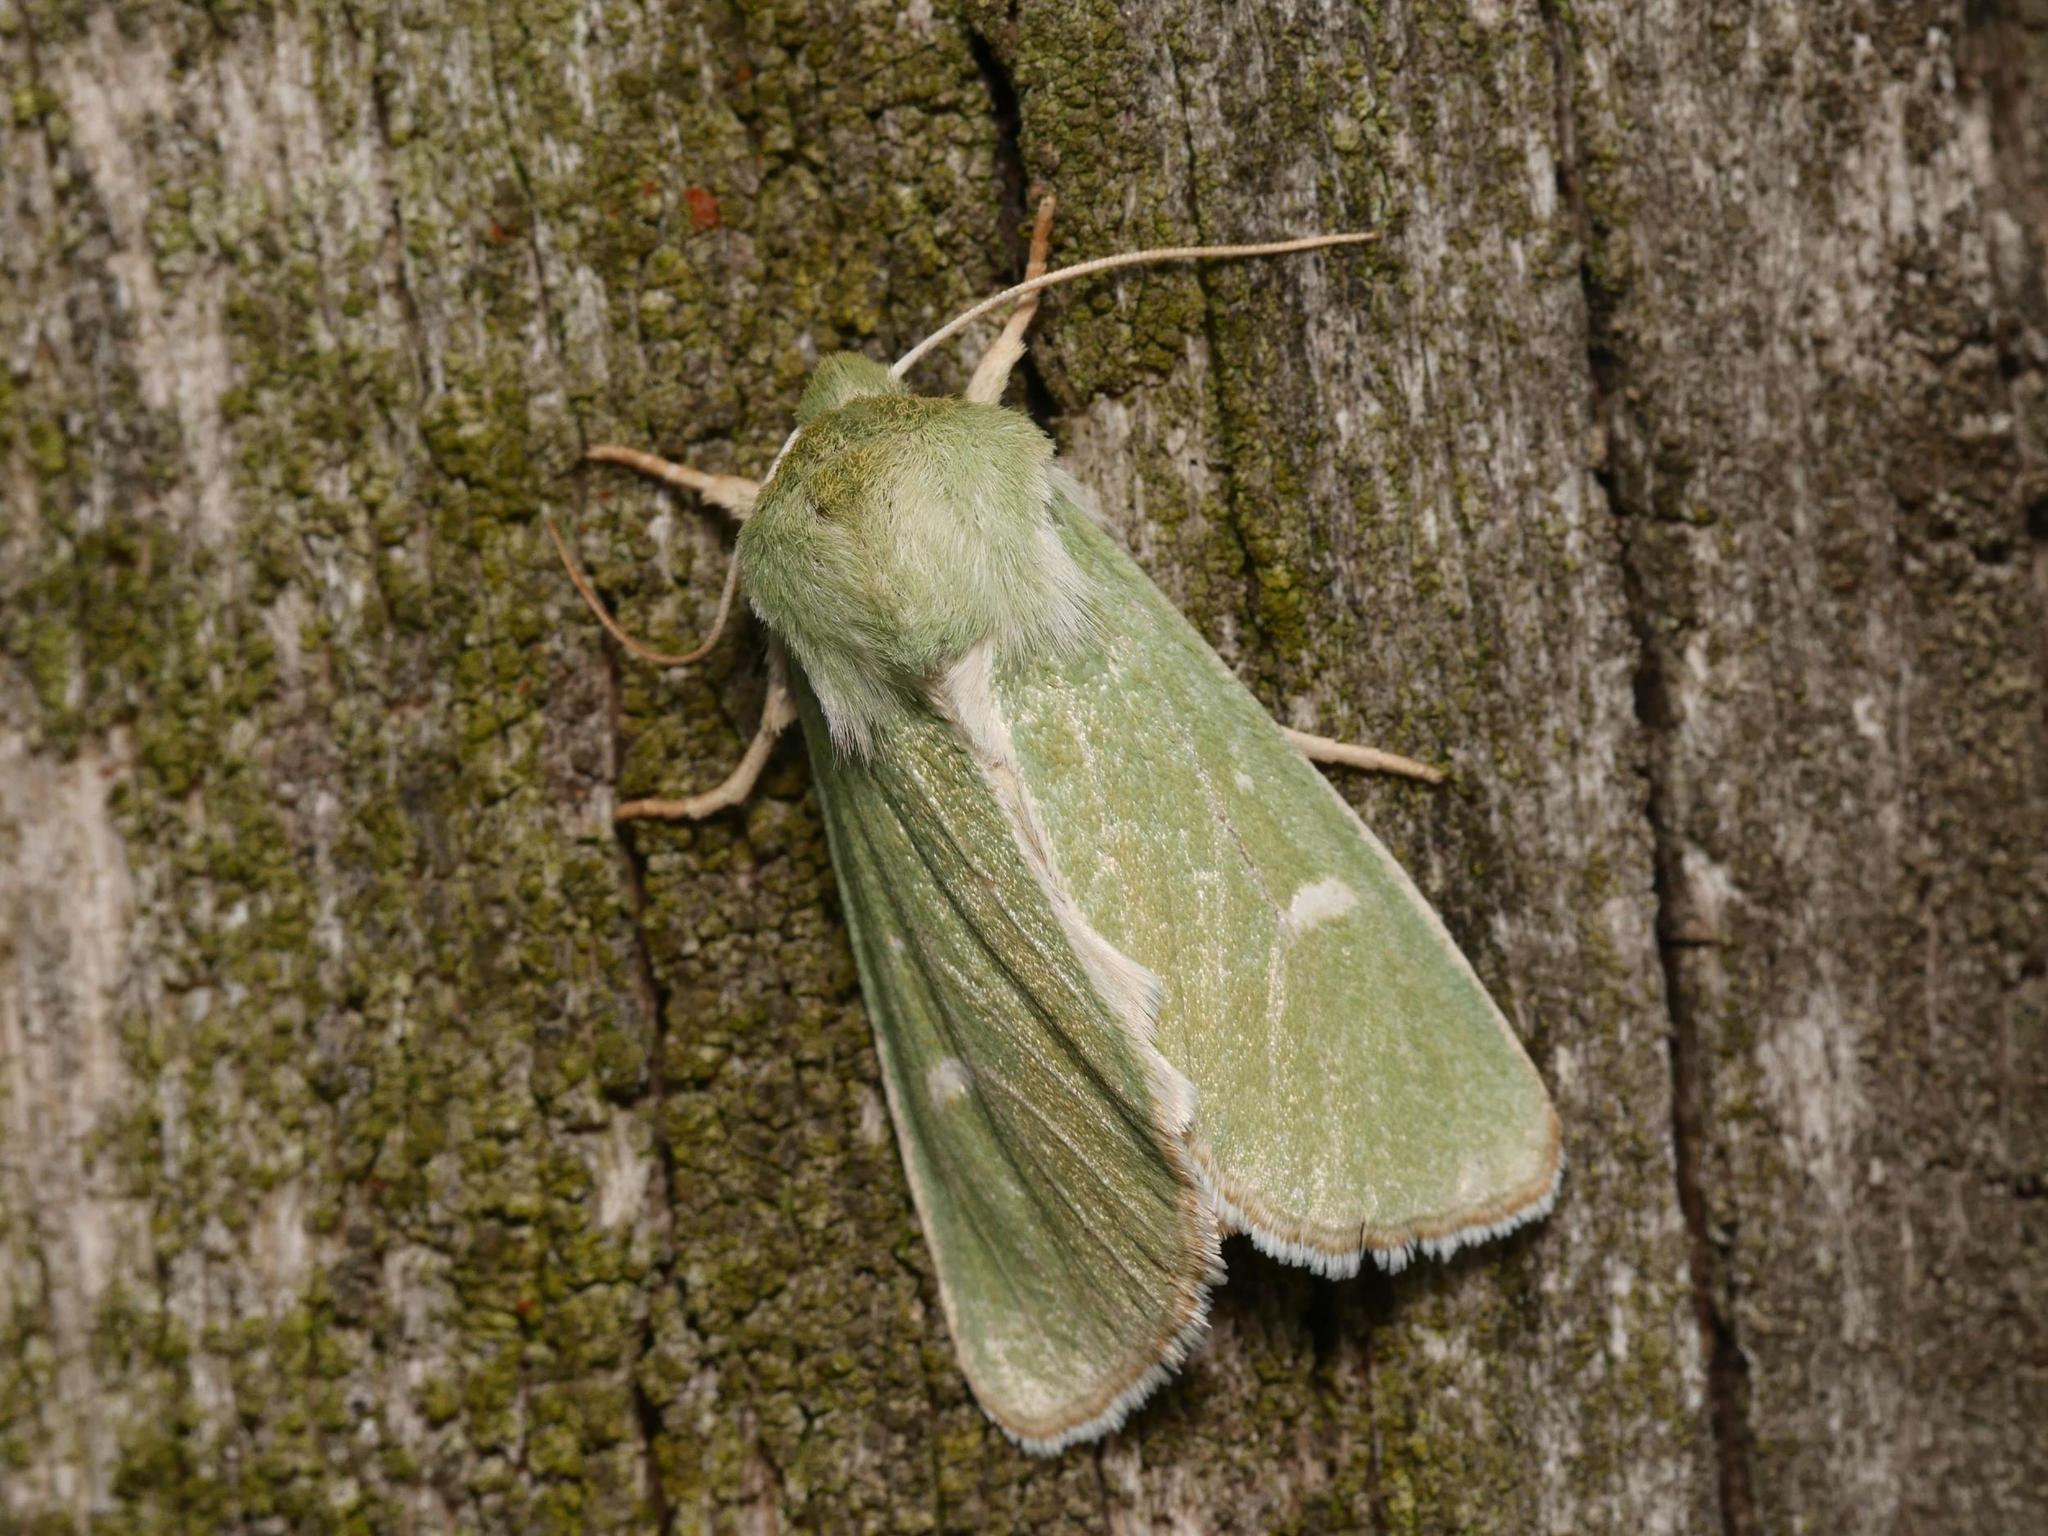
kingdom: Animalia
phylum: Arthropoda
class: Insecta
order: Lepidoptera
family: Noctuidae
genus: Calamia
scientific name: Calamia tridens
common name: Burren green
